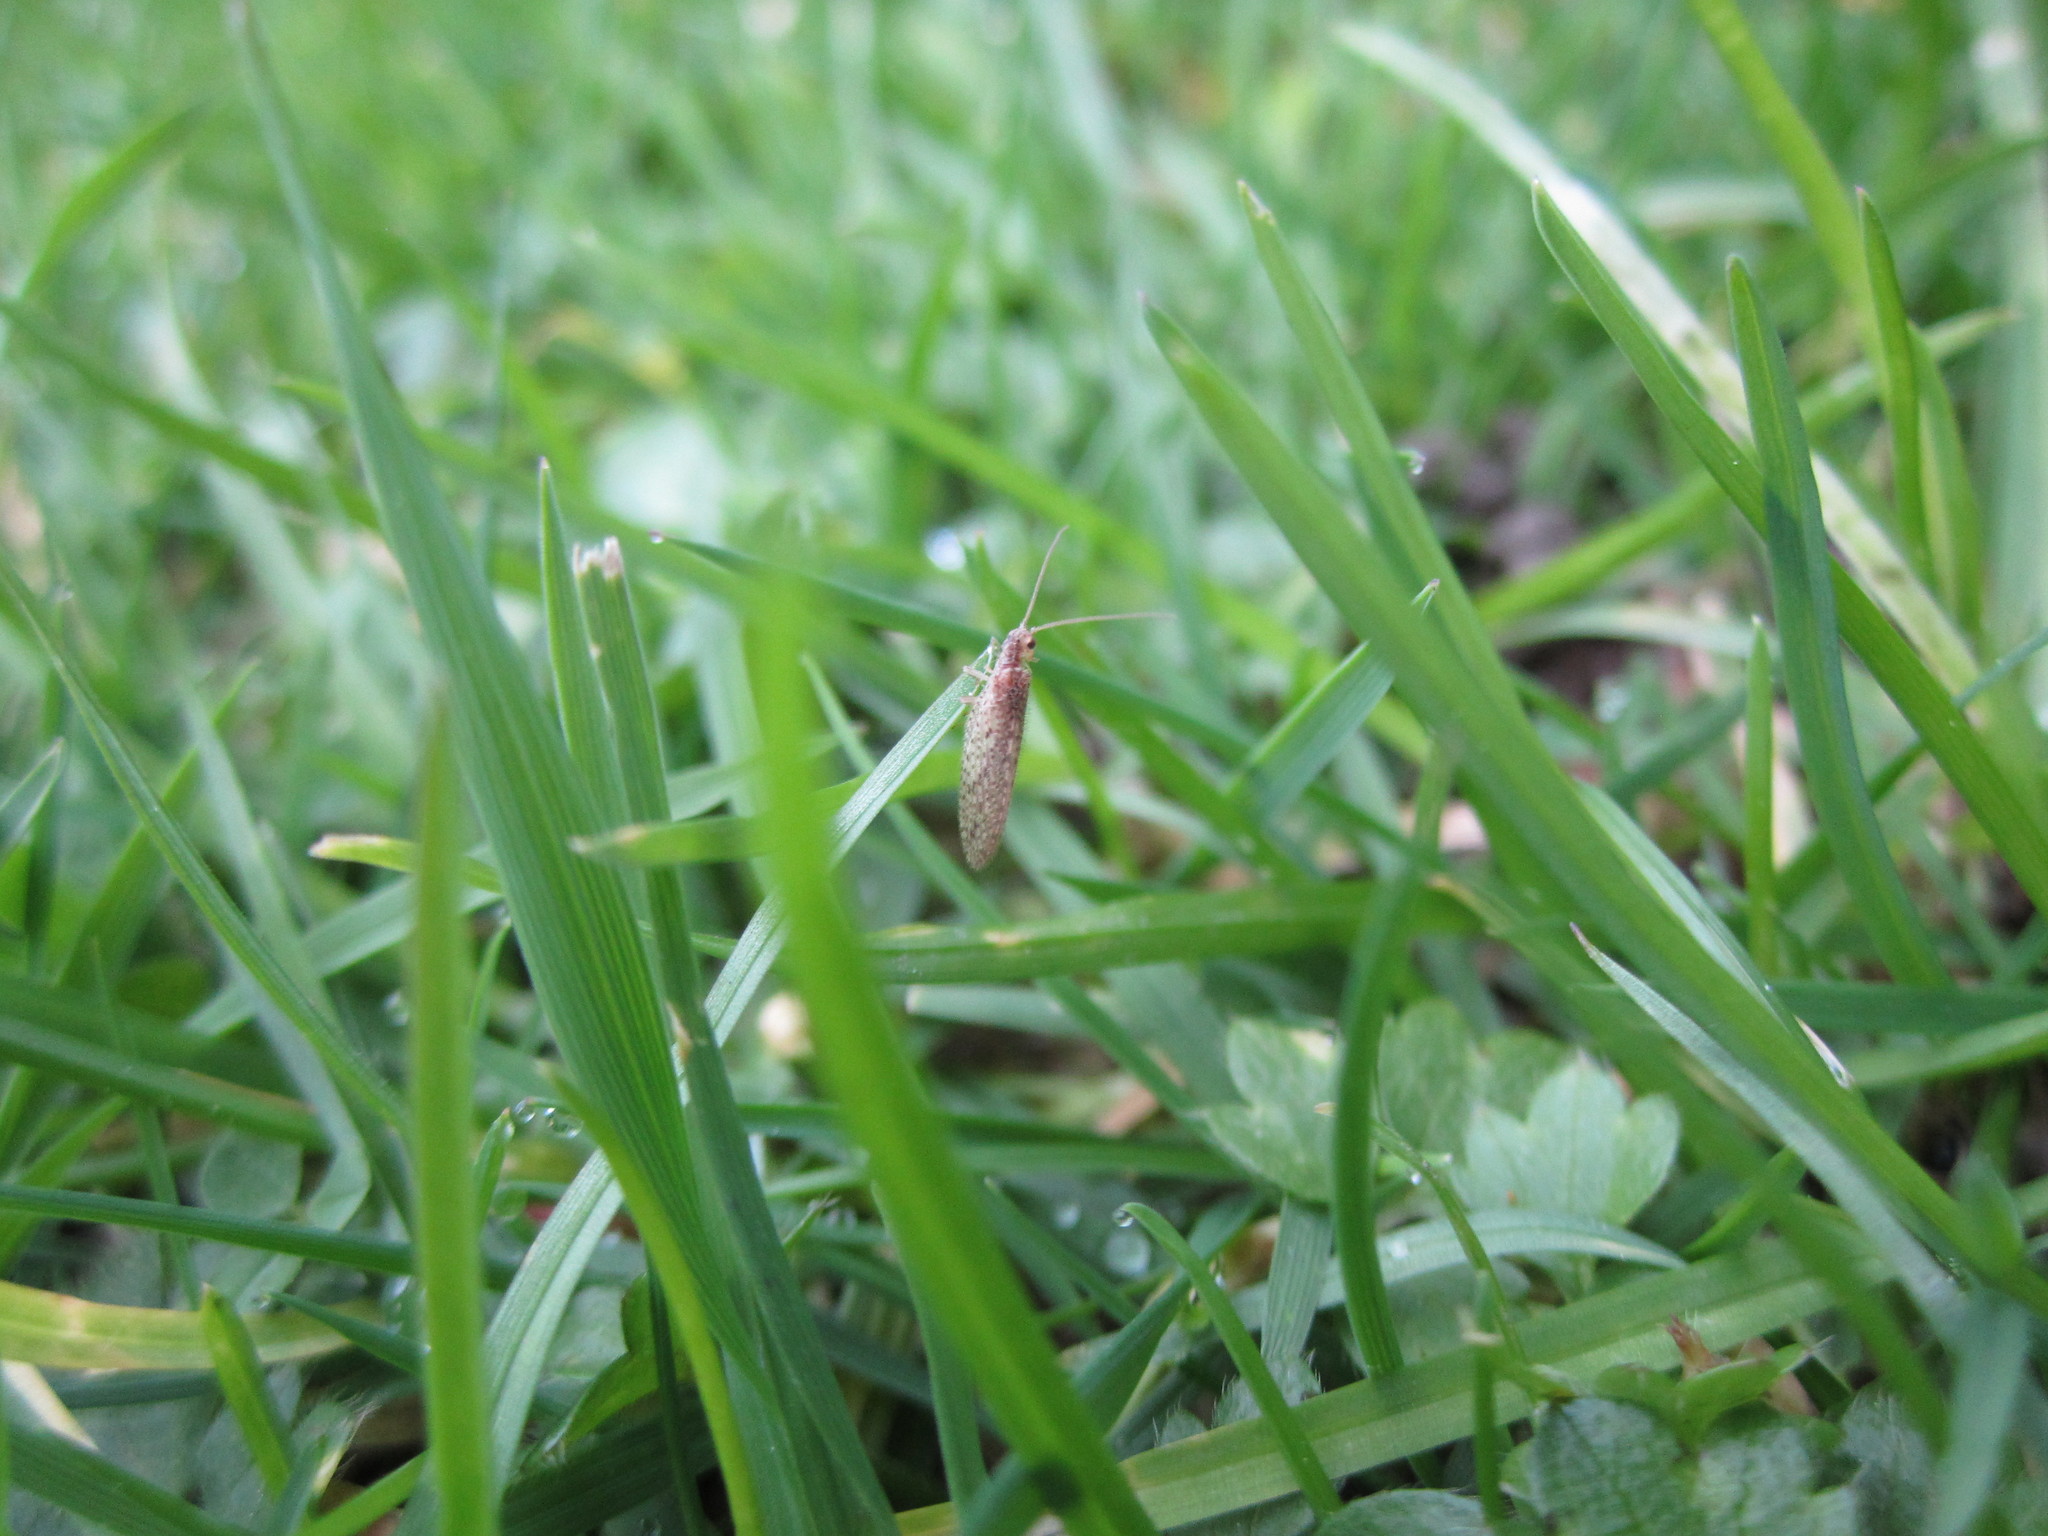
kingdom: Animalia
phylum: Arthropoda
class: Insecta
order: Neuroptera
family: Hemerobiidae
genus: Micromus
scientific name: Micromus tasmaniae
